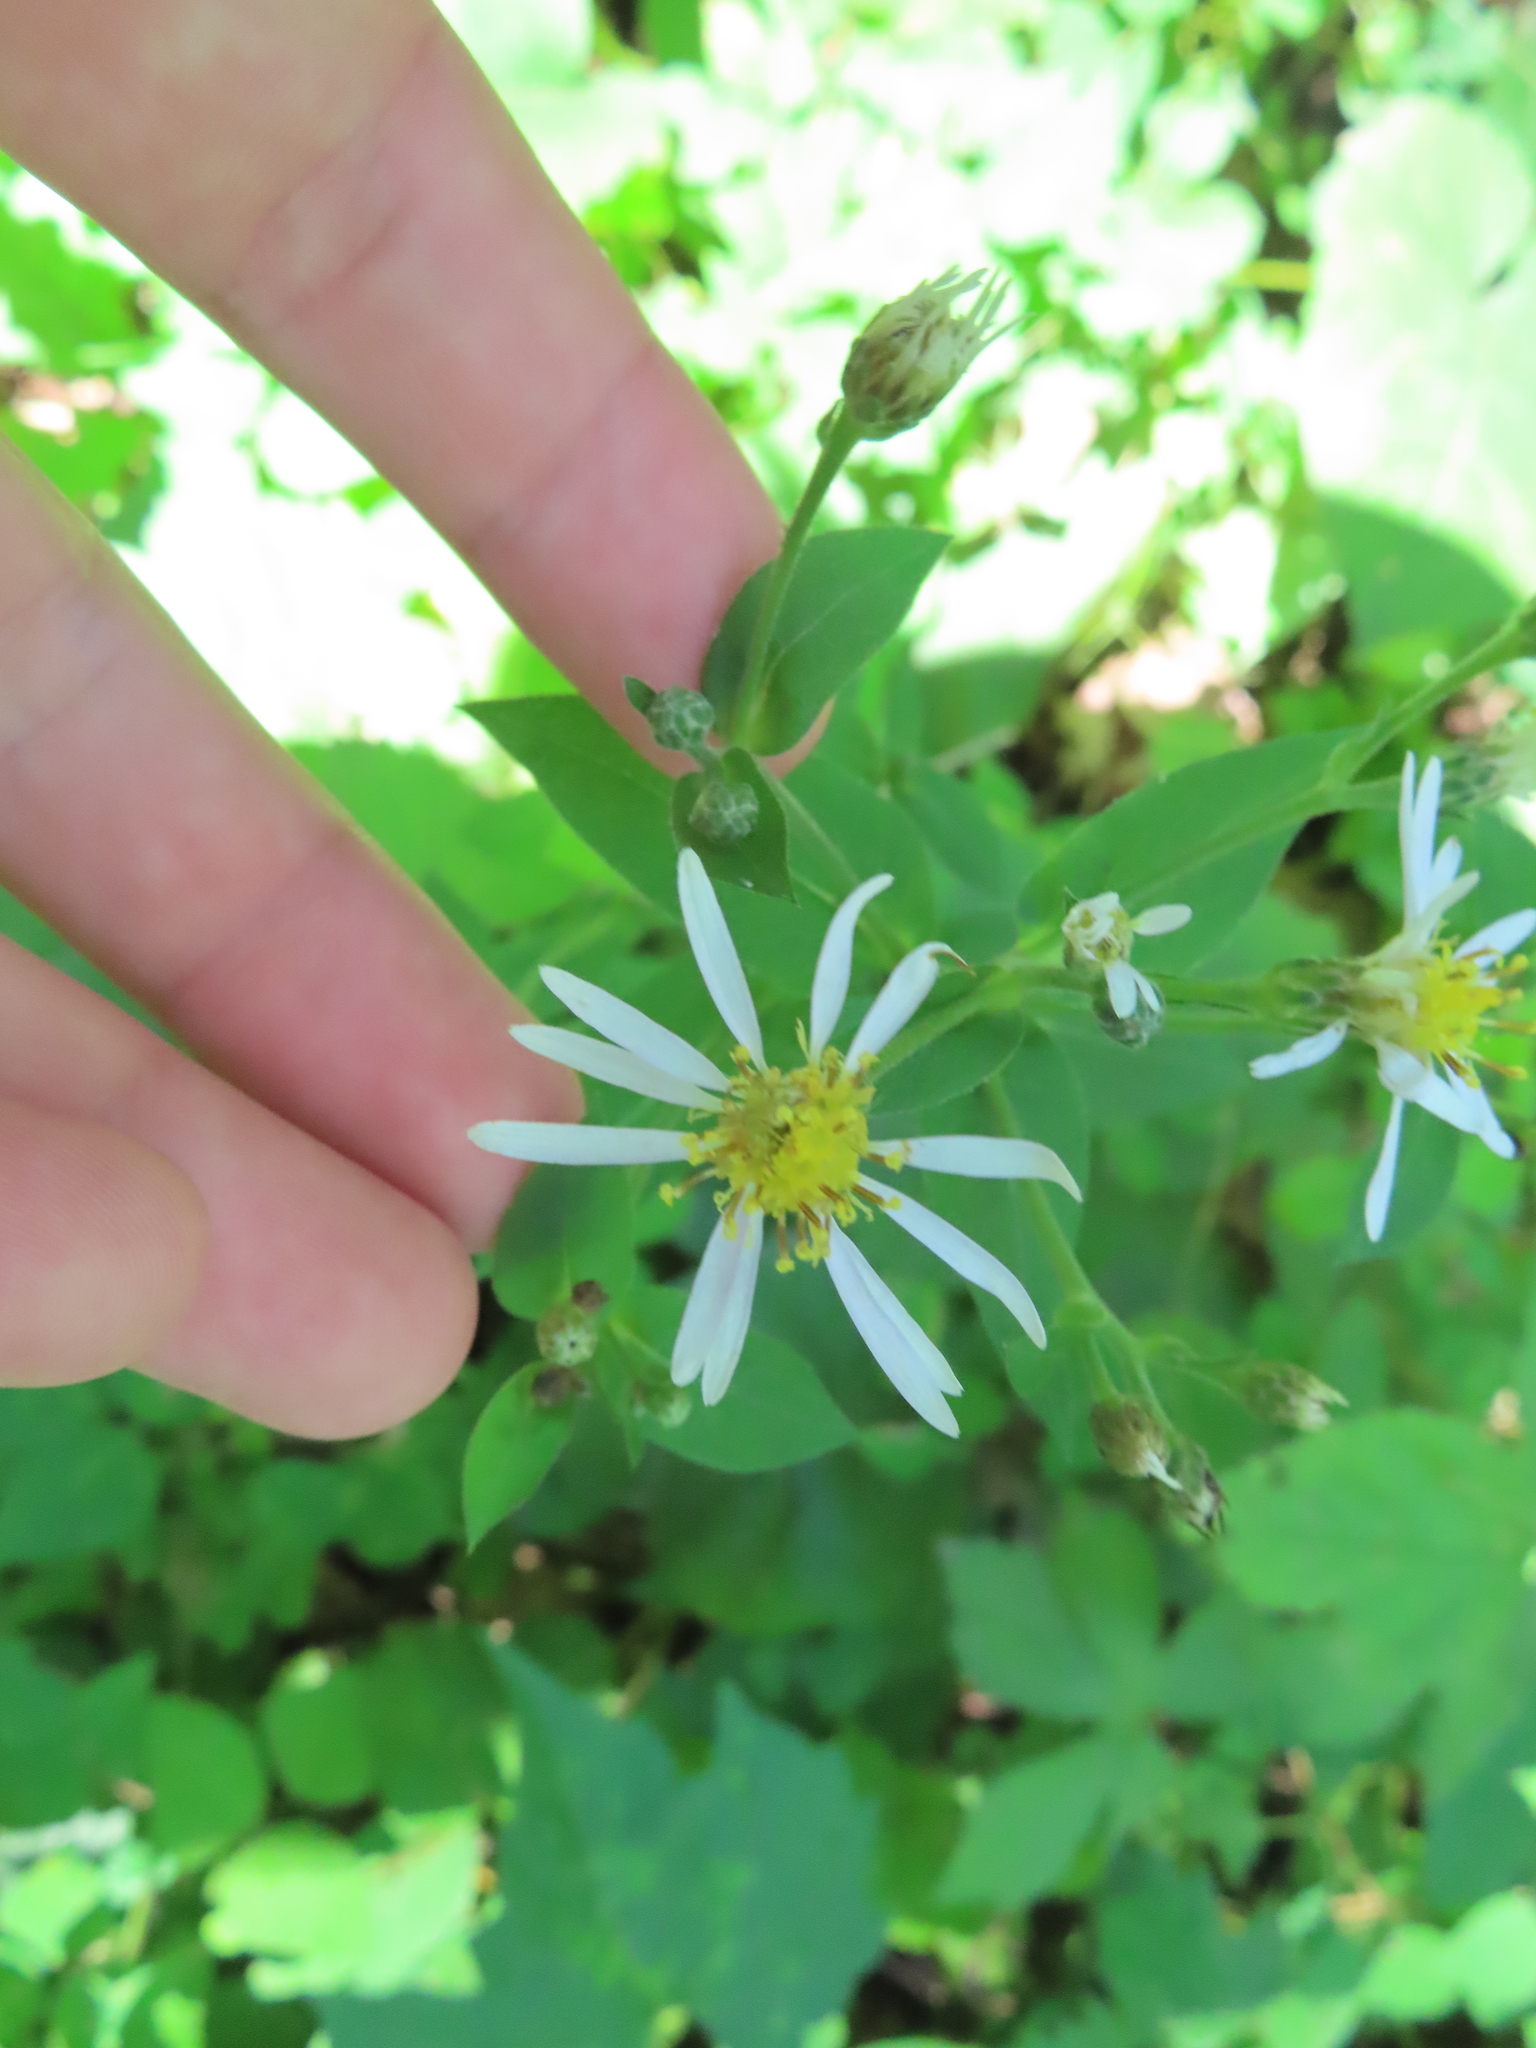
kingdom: Plantae
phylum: Tracheophyta
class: Magnoliopsida
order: Asterales
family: Asteraceae
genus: Eurybia
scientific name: Eurybia macrophylla
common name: Big-leaved aster
